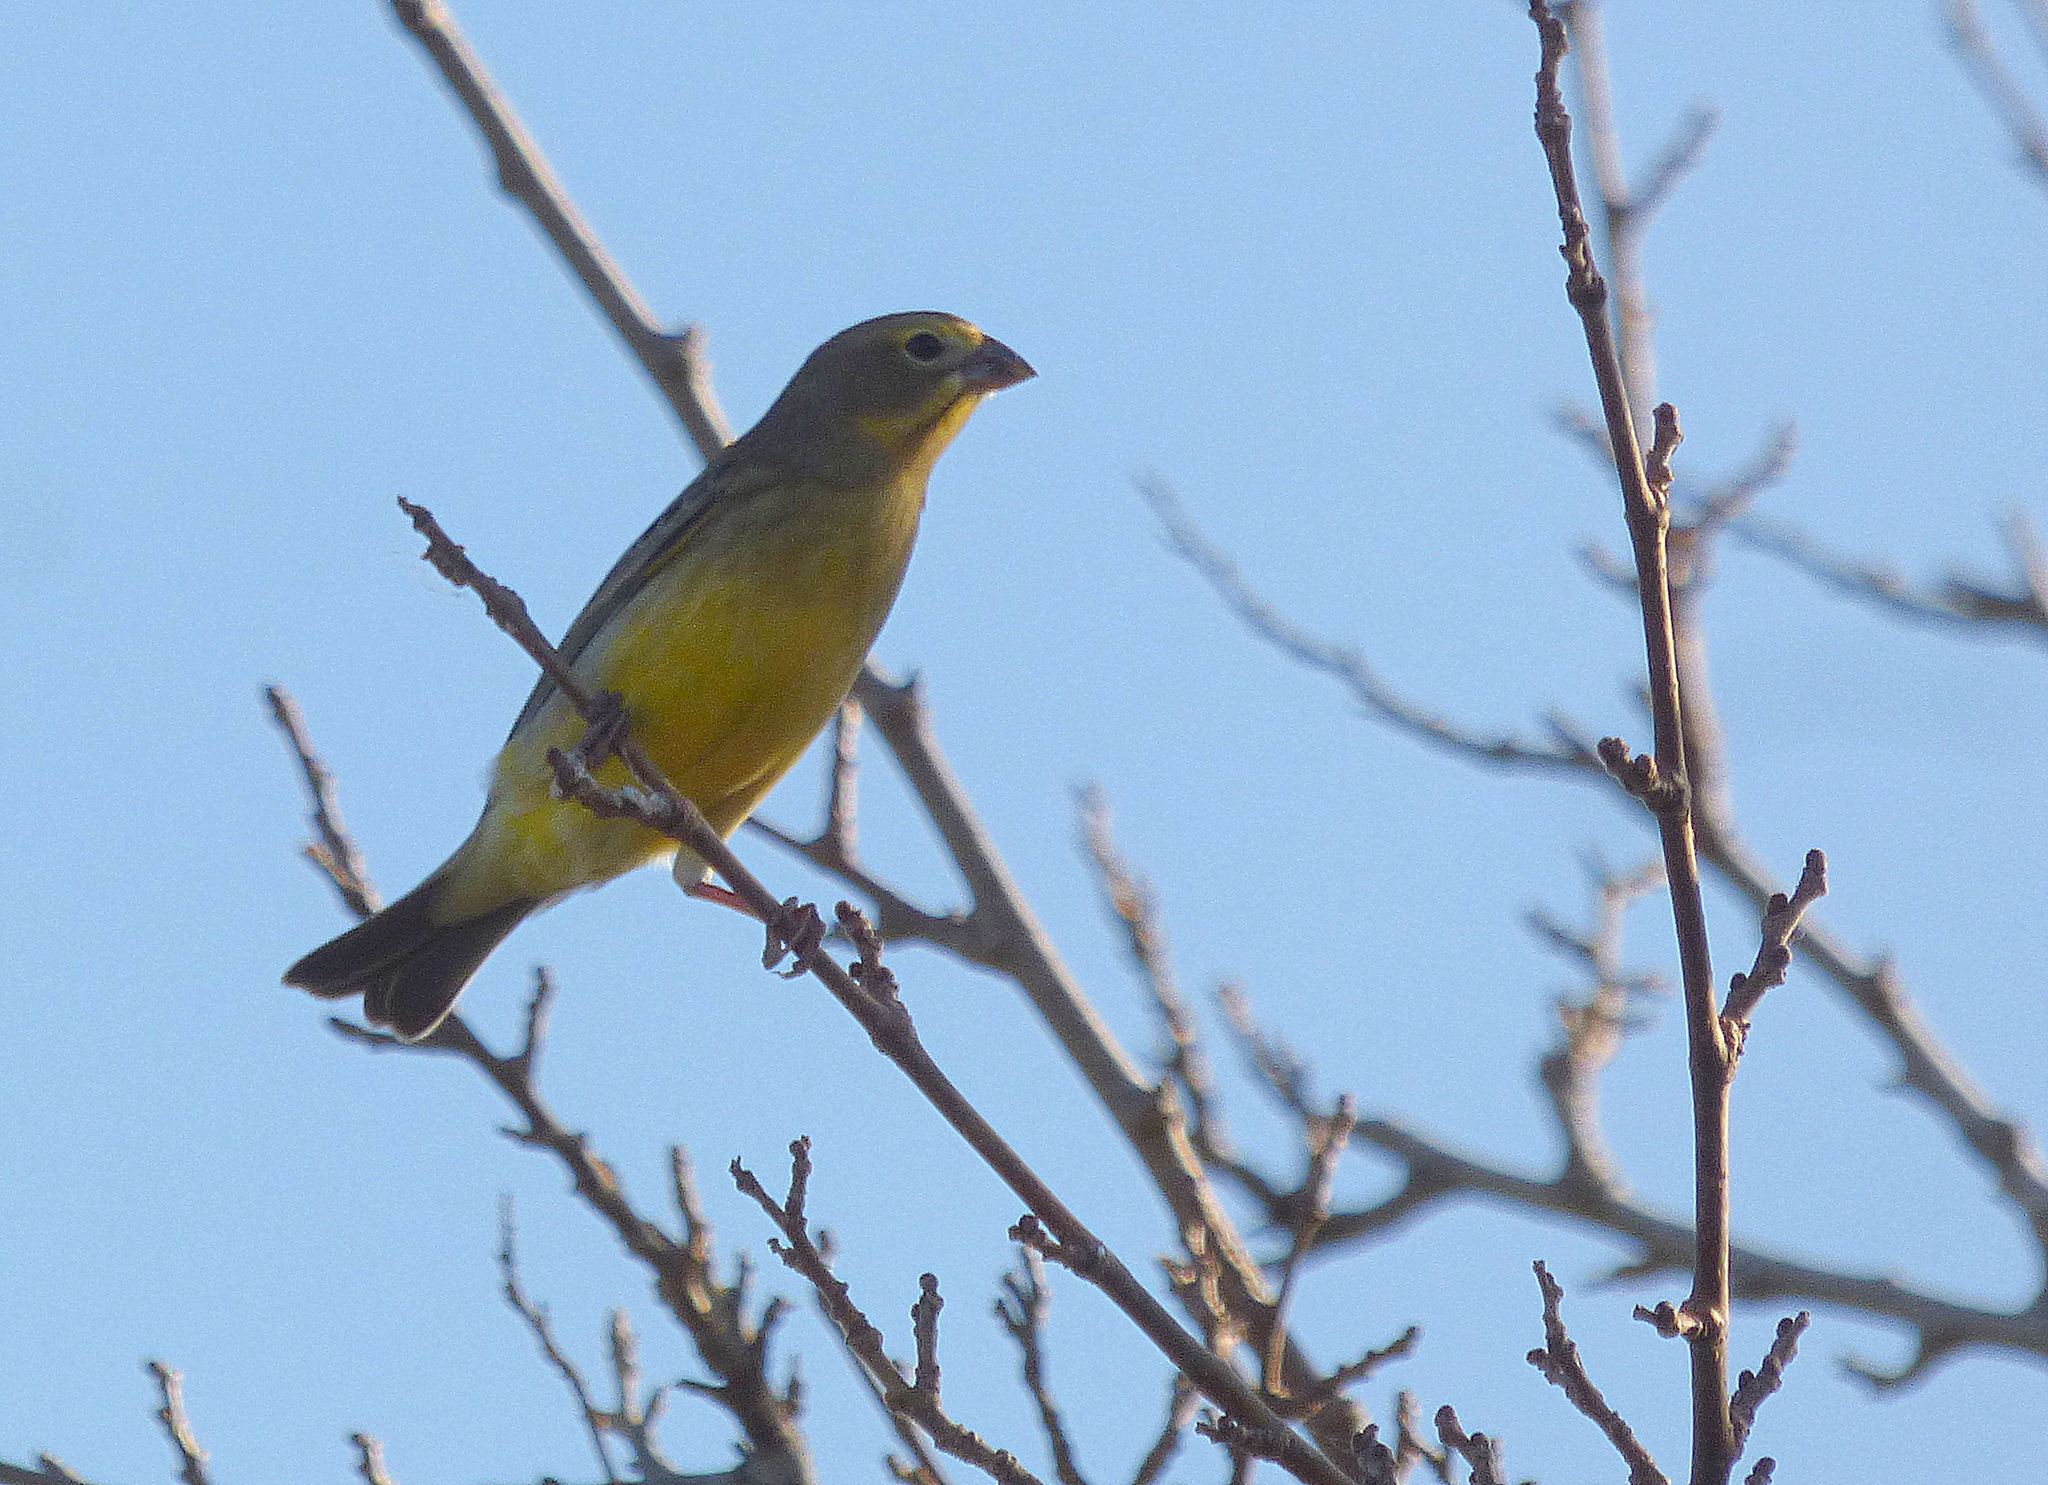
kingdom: Animalia
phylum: Chordata
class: Aves
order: Passeriformes
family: Thraupidae
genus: Sicalis
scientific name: Sicalis luteola
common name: Grassland yellow-finch
